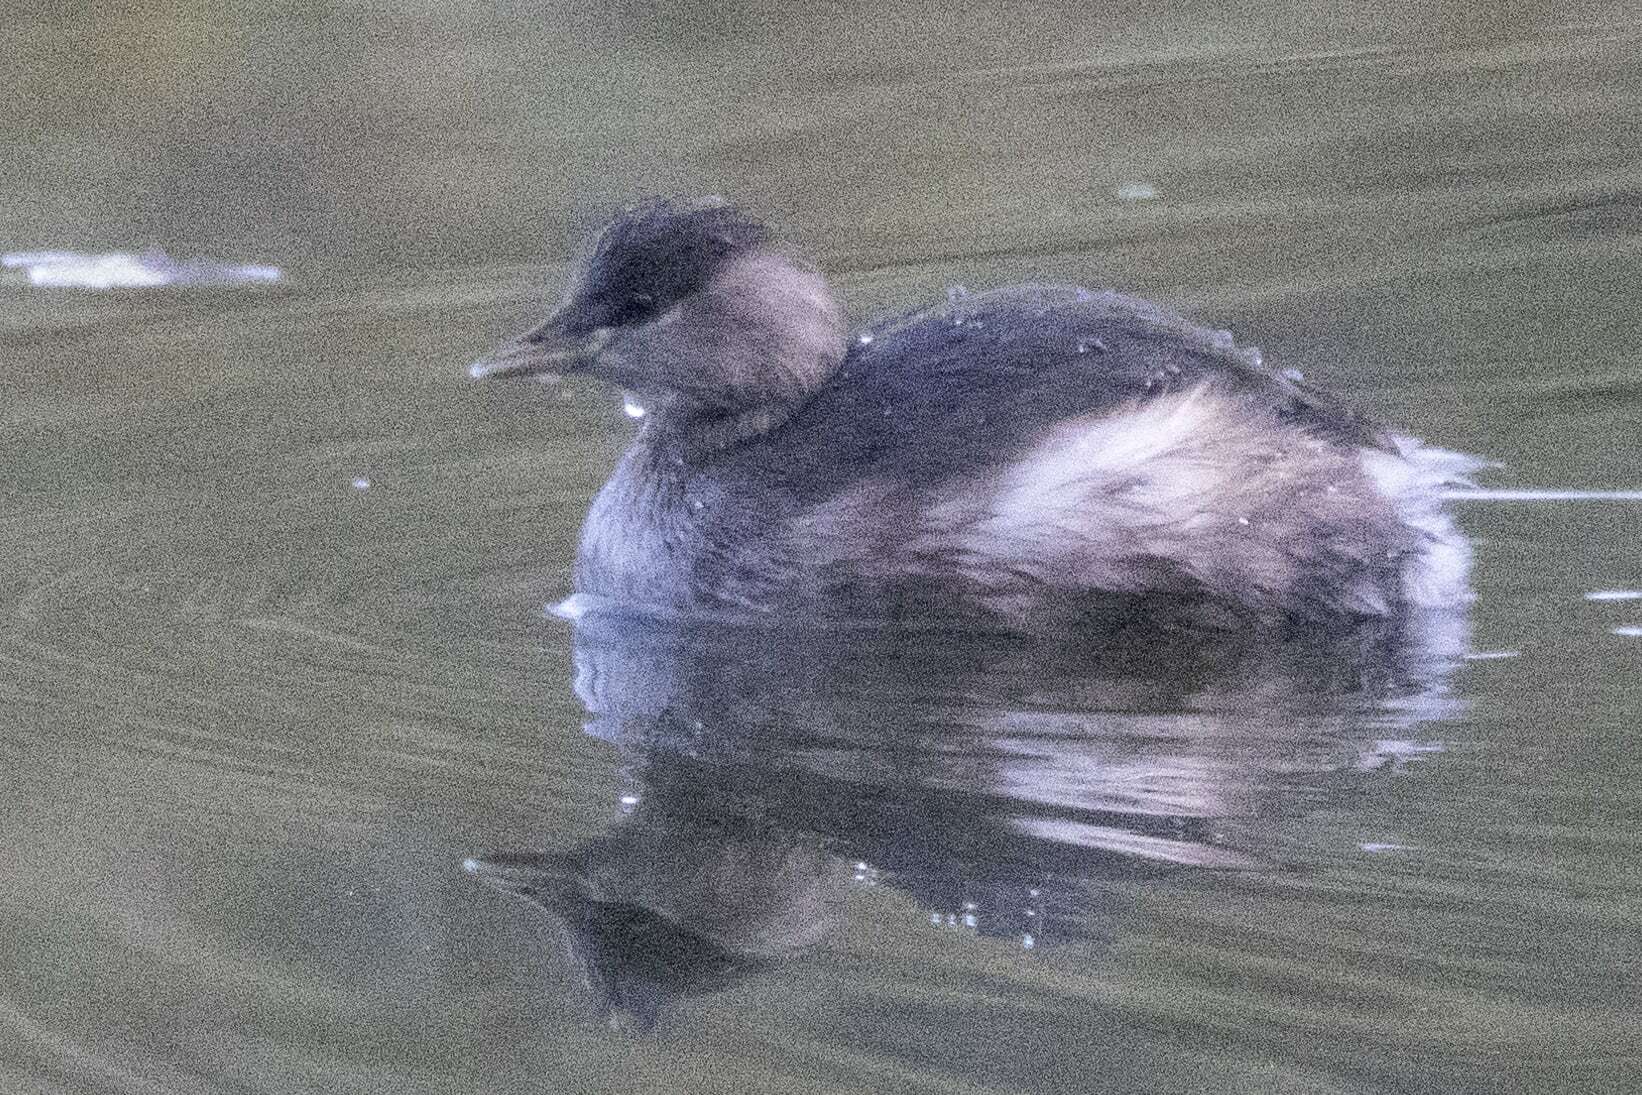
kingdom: Animalia
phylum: Chordata
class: Aves
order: Podicipediformes
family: Podicipedidae
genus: Tachybaptus
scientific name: Tachybaptus ruficollis
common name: Little grebe
